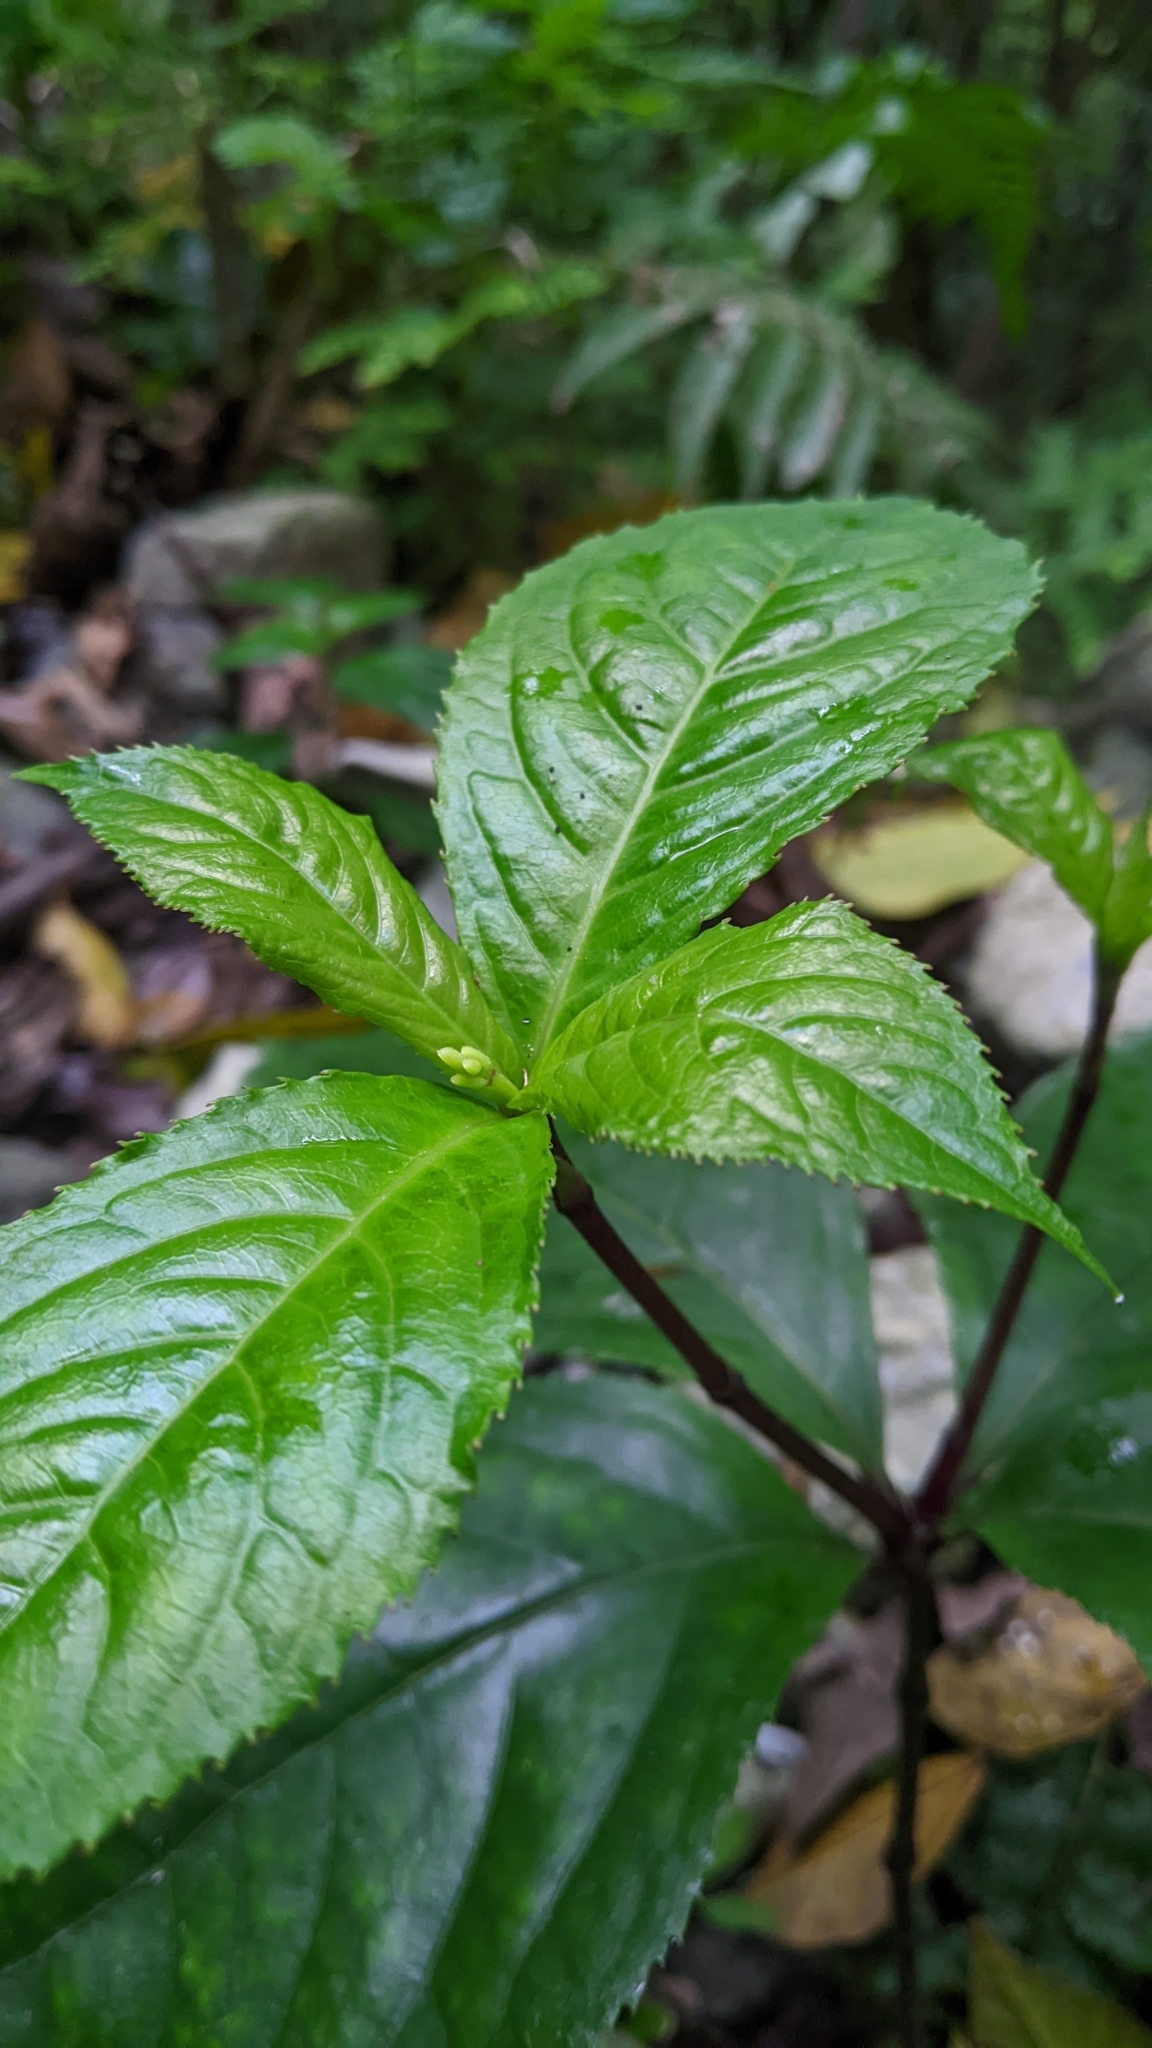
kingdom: Plantae
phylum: Tracheophyta
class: Magnoliopsida
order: Chloranthales
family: Chloranthaceae
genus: Chloranthus
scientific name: Chloranthus henryi
